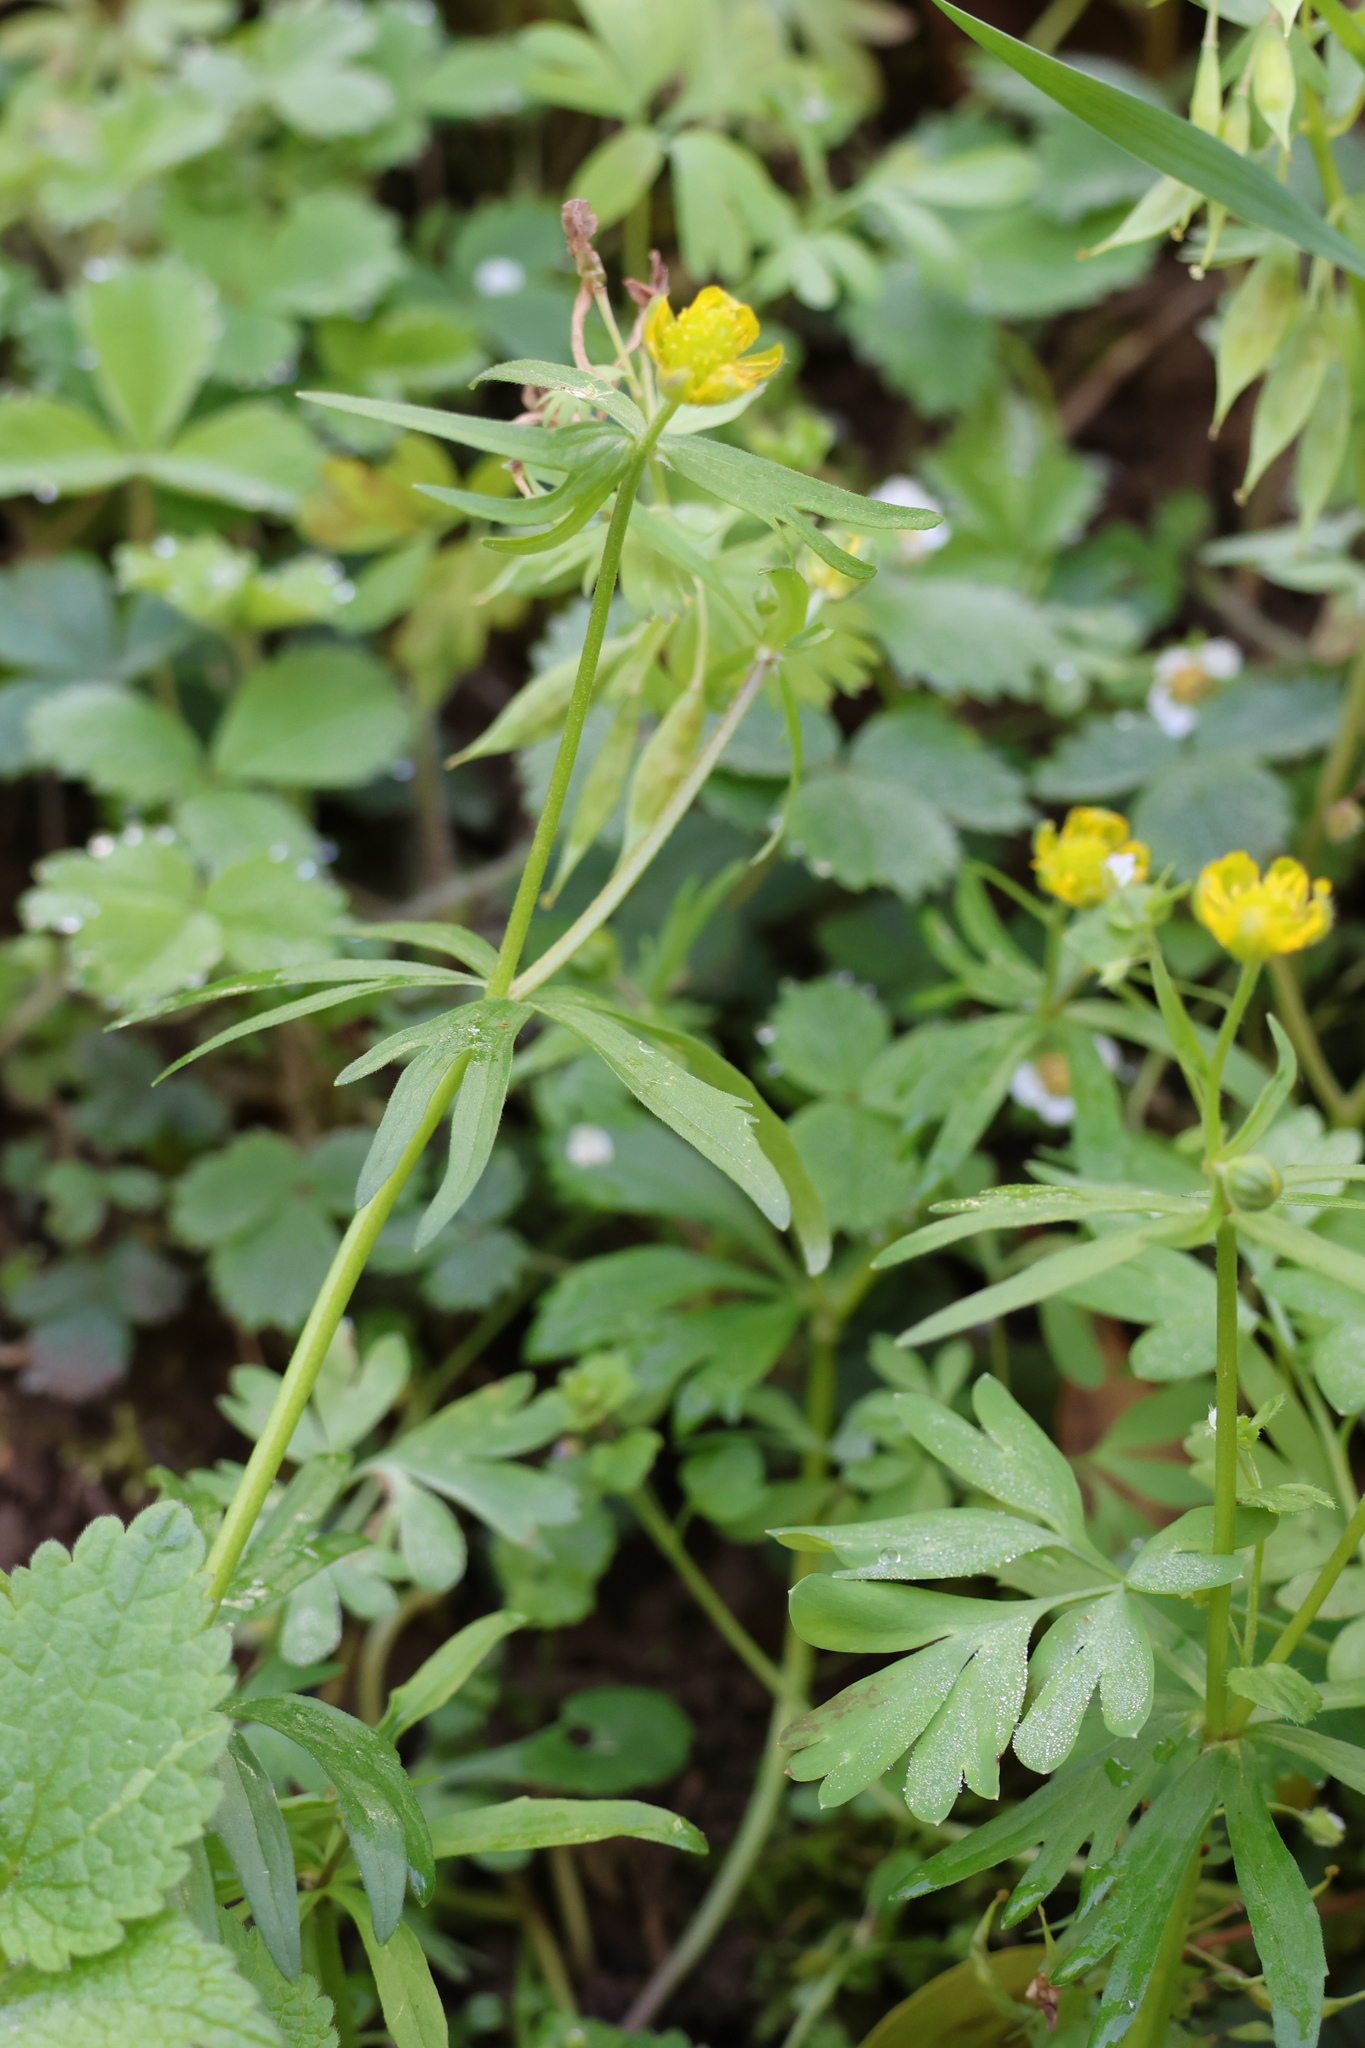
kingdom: Plantae
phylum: Tracheophyta
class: Magnoliopsida
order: Ranunculales
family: Ranunculaceae
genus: Ranunculus
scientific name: Ranunculus auricomus
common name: Goldilocks buttercup
